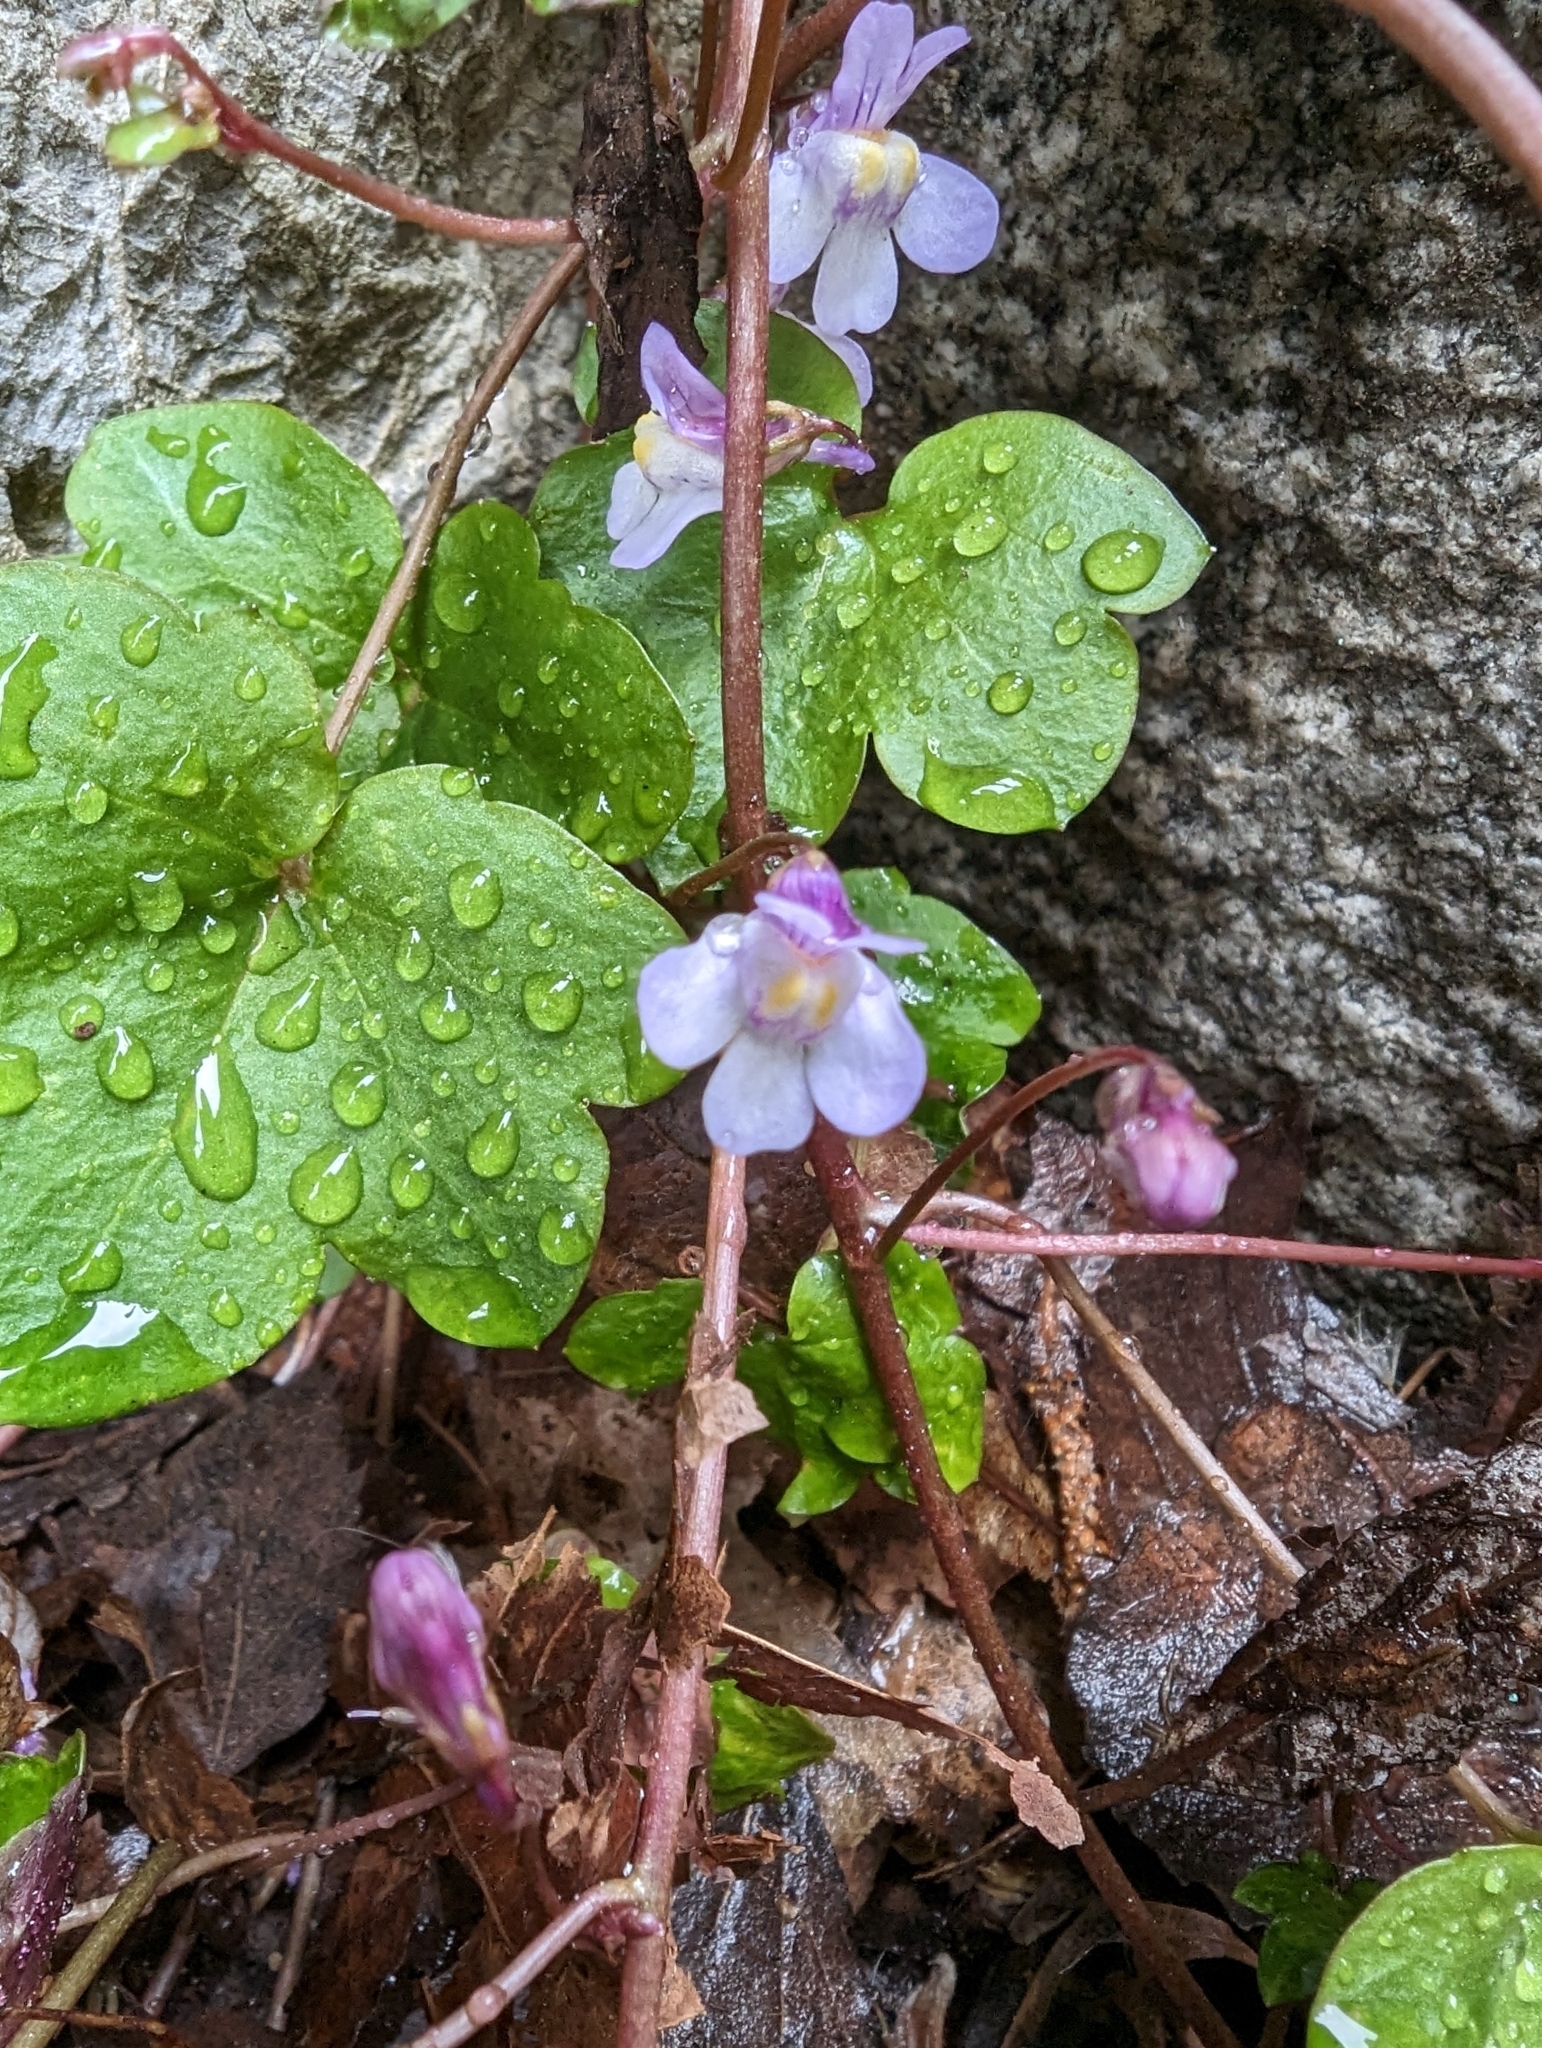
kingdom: Plantae
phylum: Tracheophyta
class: Magnoliopsida
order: Lamiales
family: Plantaginaceae
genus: Cymbalaria
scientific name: Cymbalaria muralis
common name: Ivy-leaved toadflax
